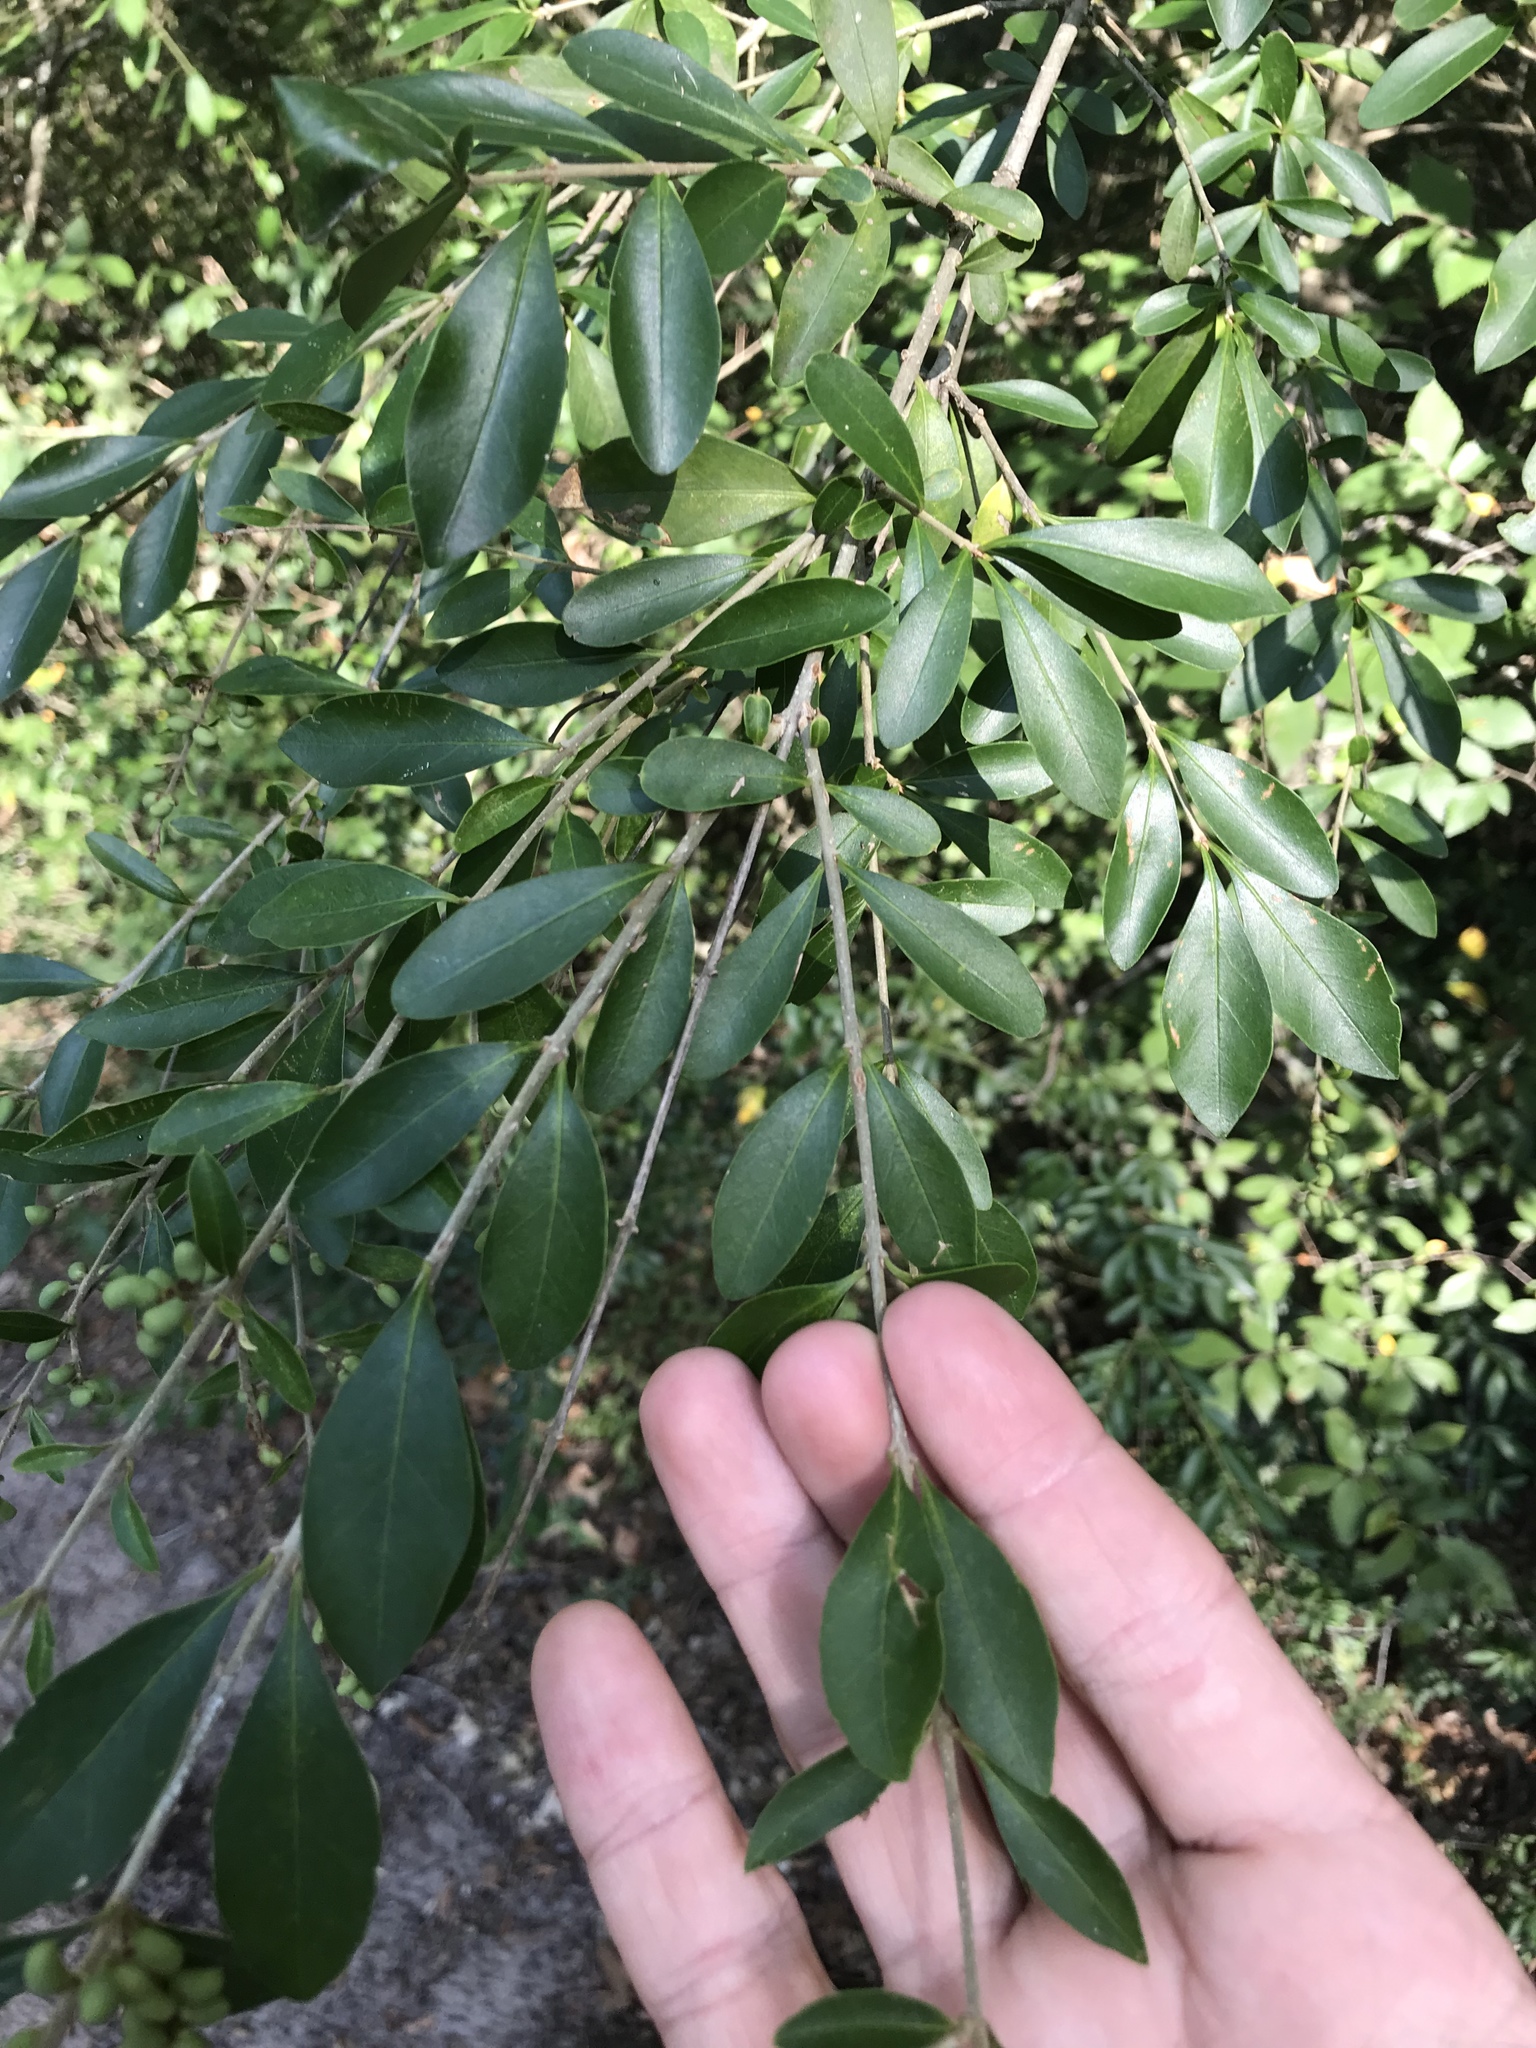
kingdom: Plantae
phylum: Tracheophyta
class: Magnoliopsida
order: Lamiales
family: Oleaceae
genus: Ligustrum
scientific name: Ligustrum quihoui
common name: Waxyleaf privet
